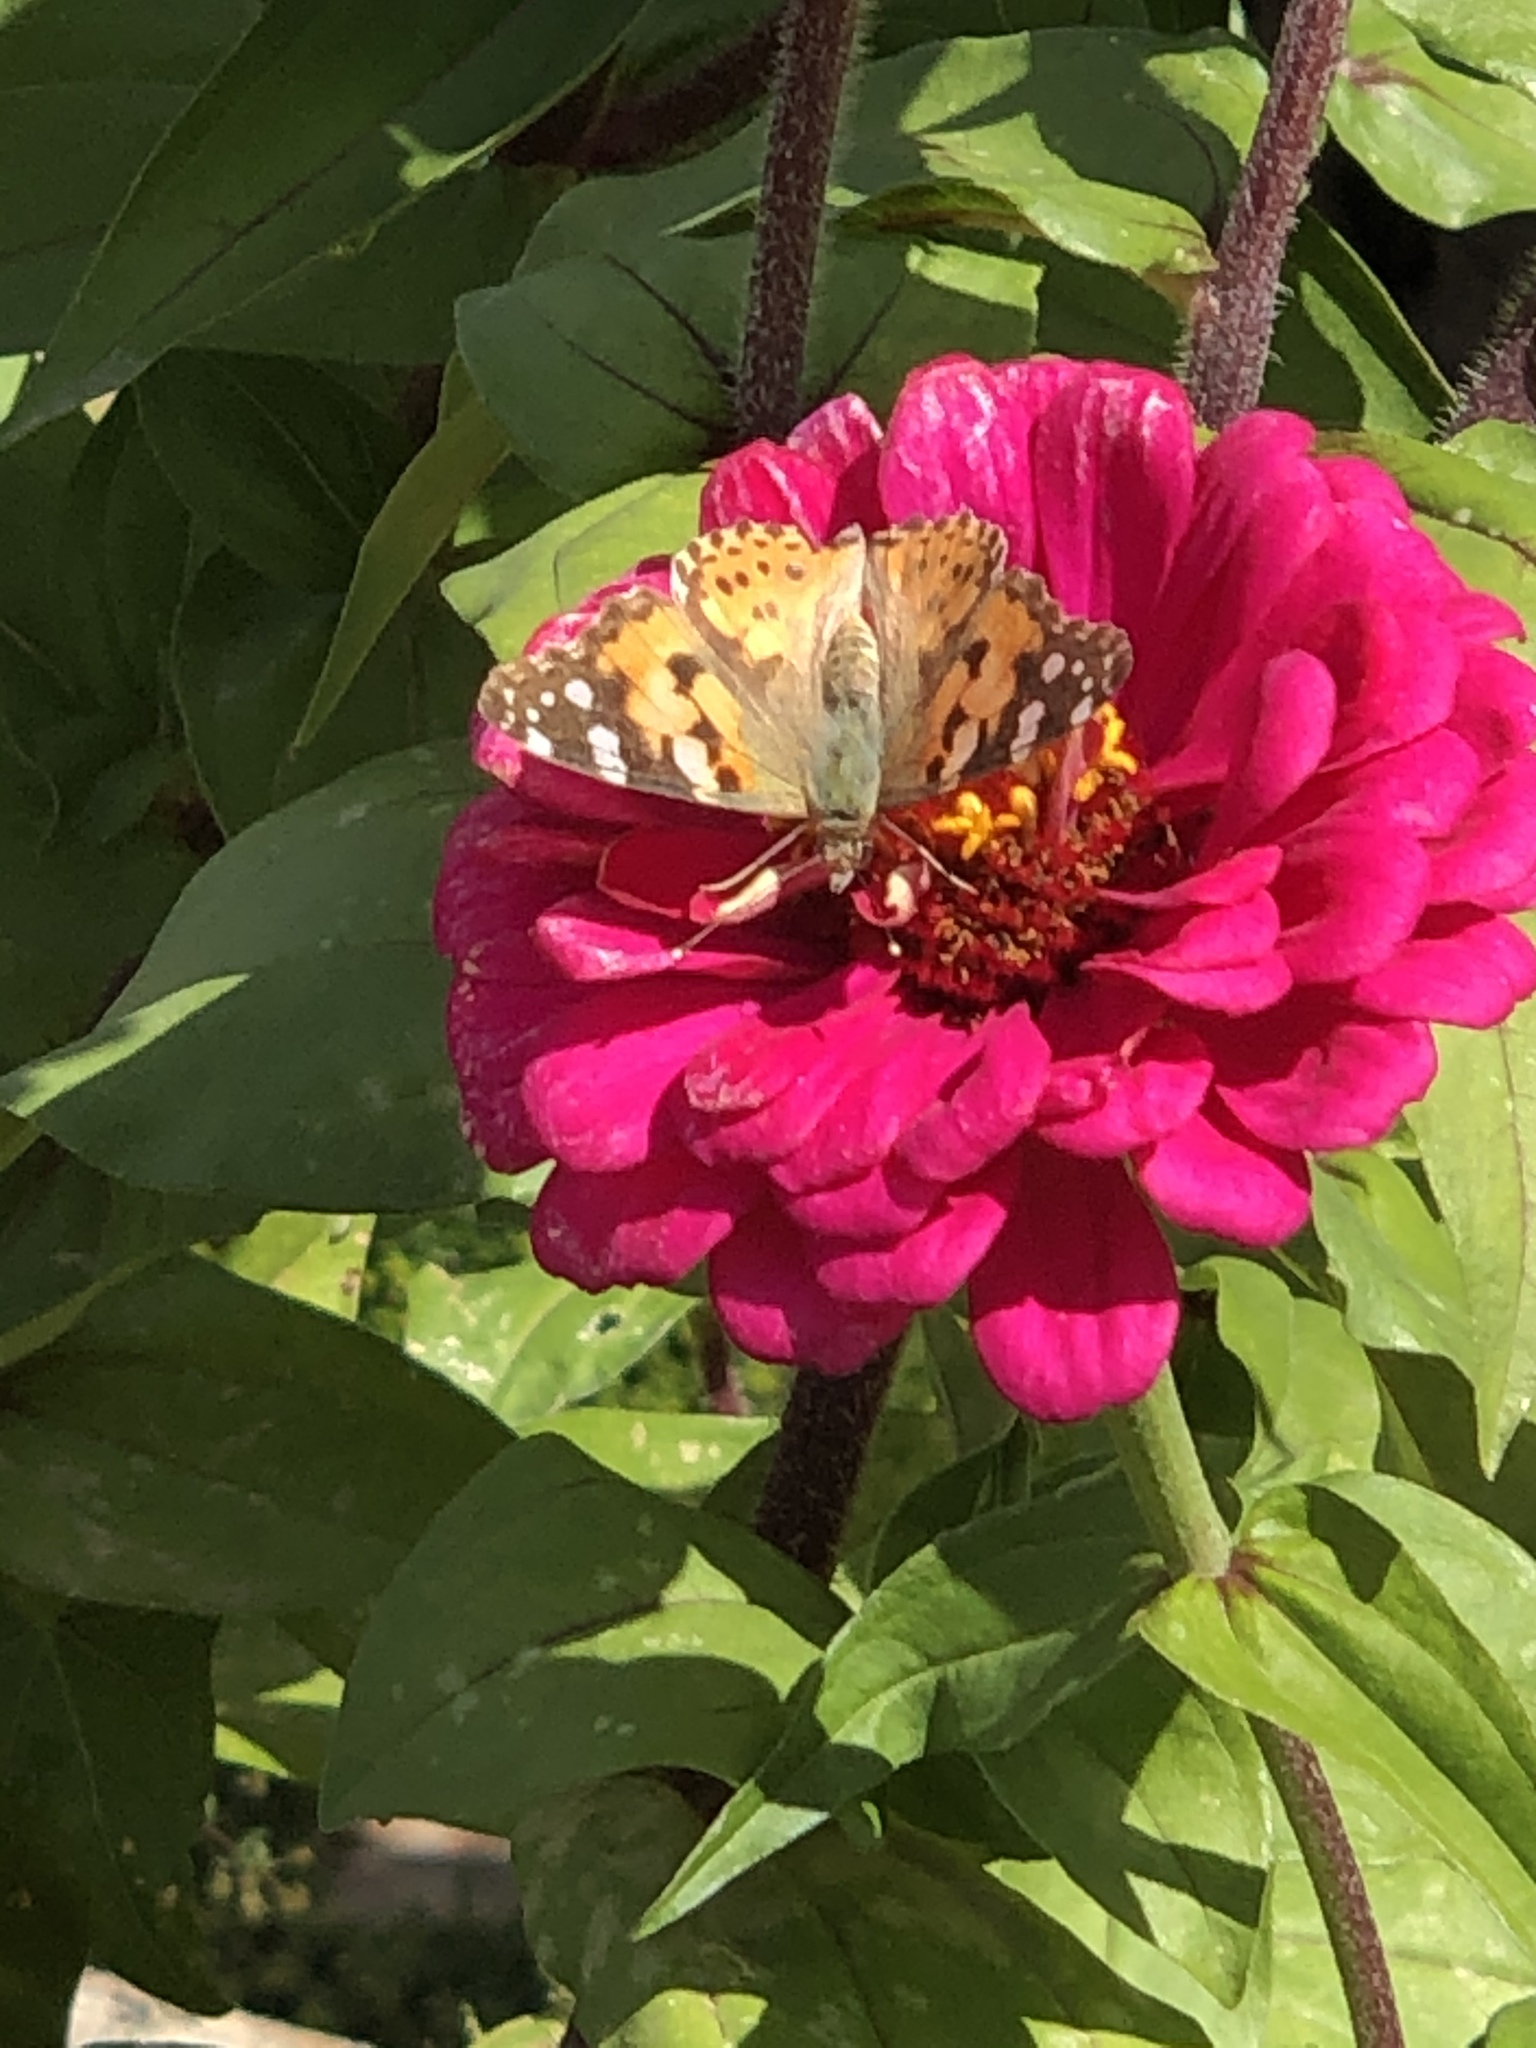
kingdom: Animalia
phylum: Arthropoda
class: Insecta
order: Lepidoptera
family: Nymphalidae
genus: Vanessa
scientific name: Vanessa cardui
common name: Painted lady
